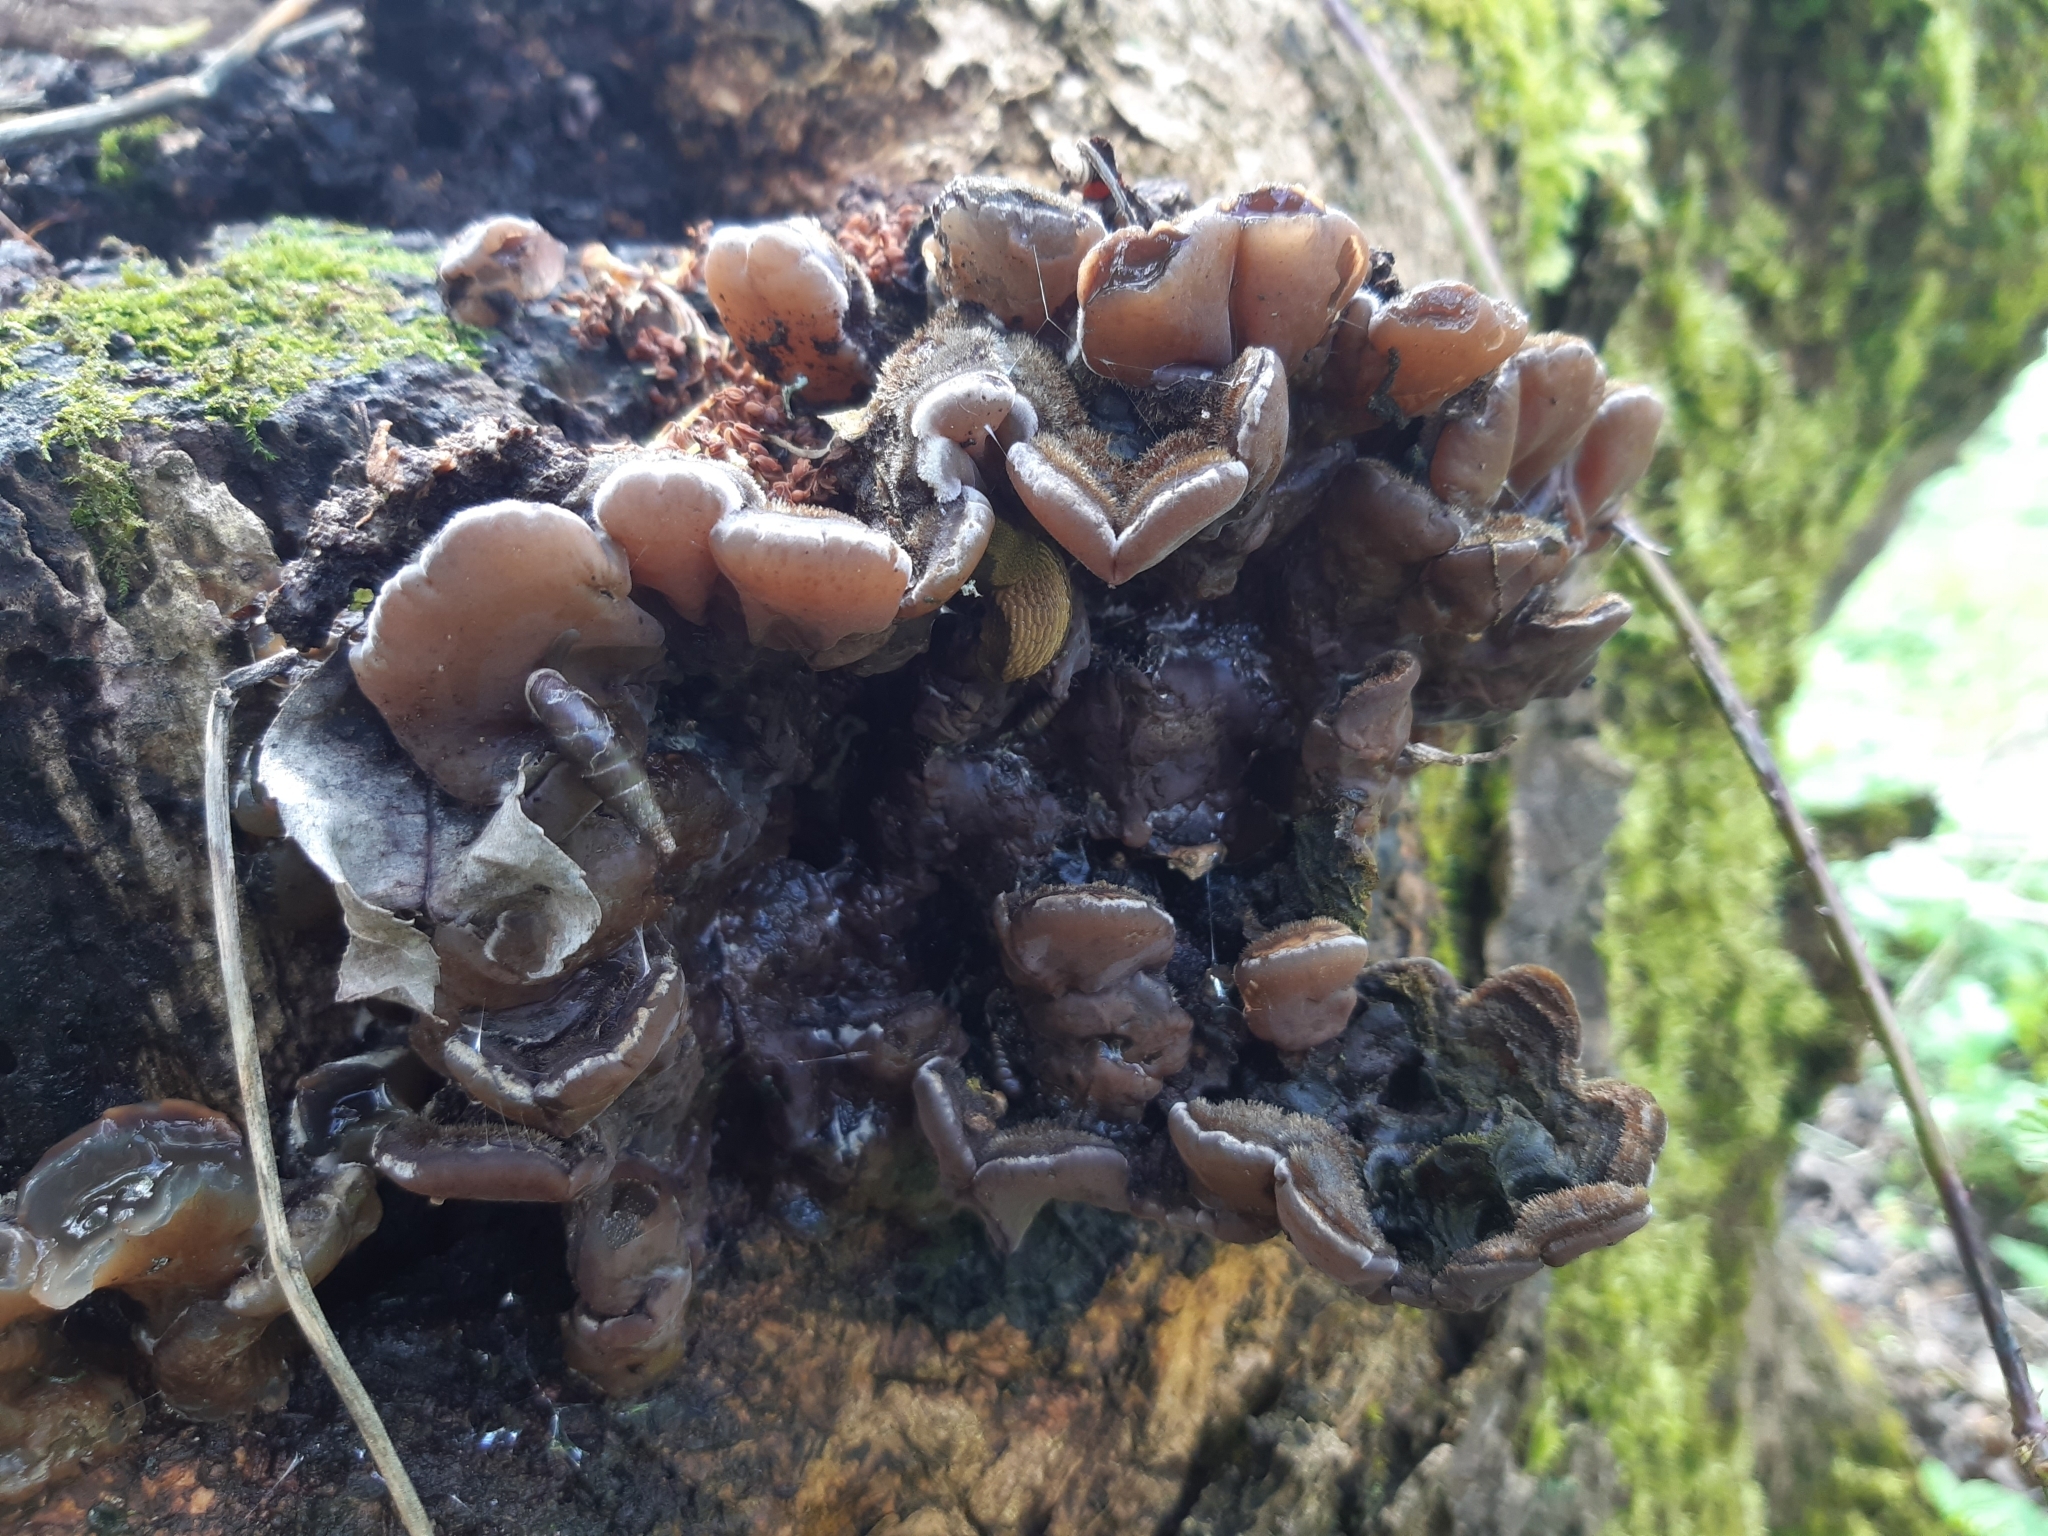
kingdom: Fungi
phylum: Basidiomycota
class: Agaricomycetes
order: Auriculariales
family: Auriculariaceae
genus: Auricularia
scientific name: Auricularia mesenterica
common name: Tripe fungus
